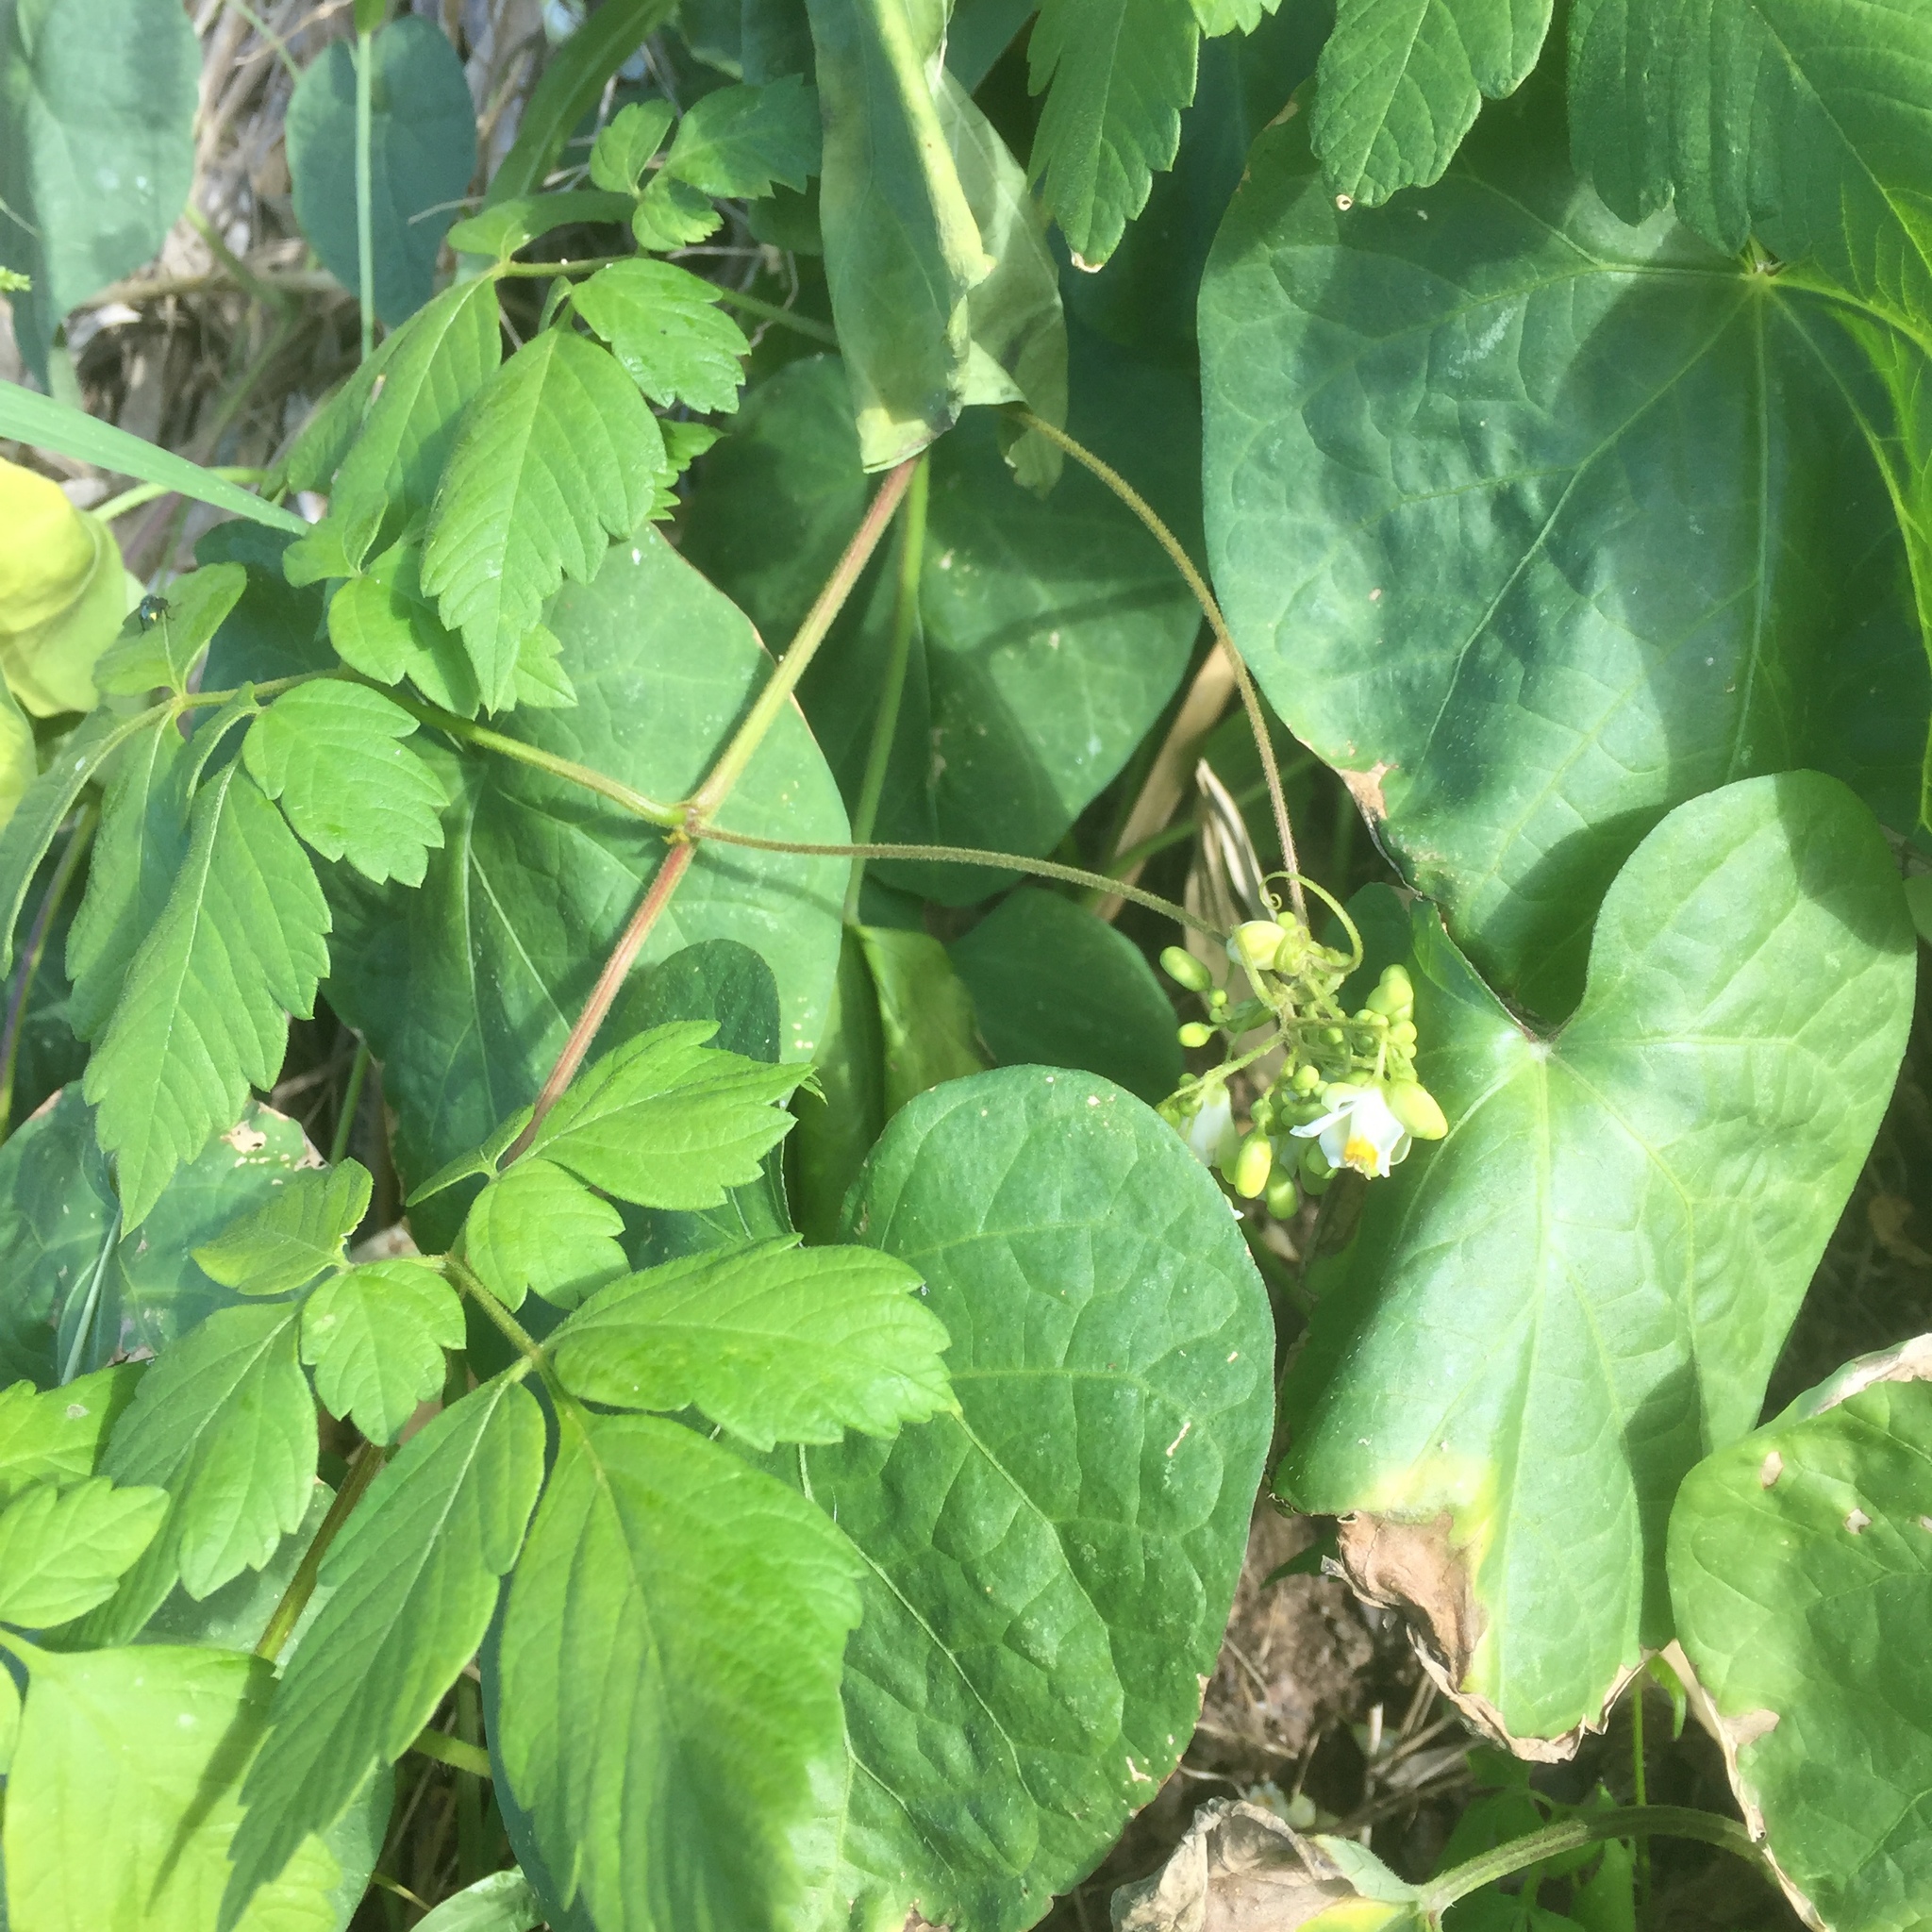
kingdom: Plantae
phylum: Tracheophyta
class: Magnoliopsida
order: Sapindales
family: Sapindaceae
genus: Cardiospermum
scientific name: Cardiospermum grandiflorum
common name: Balloon vine
